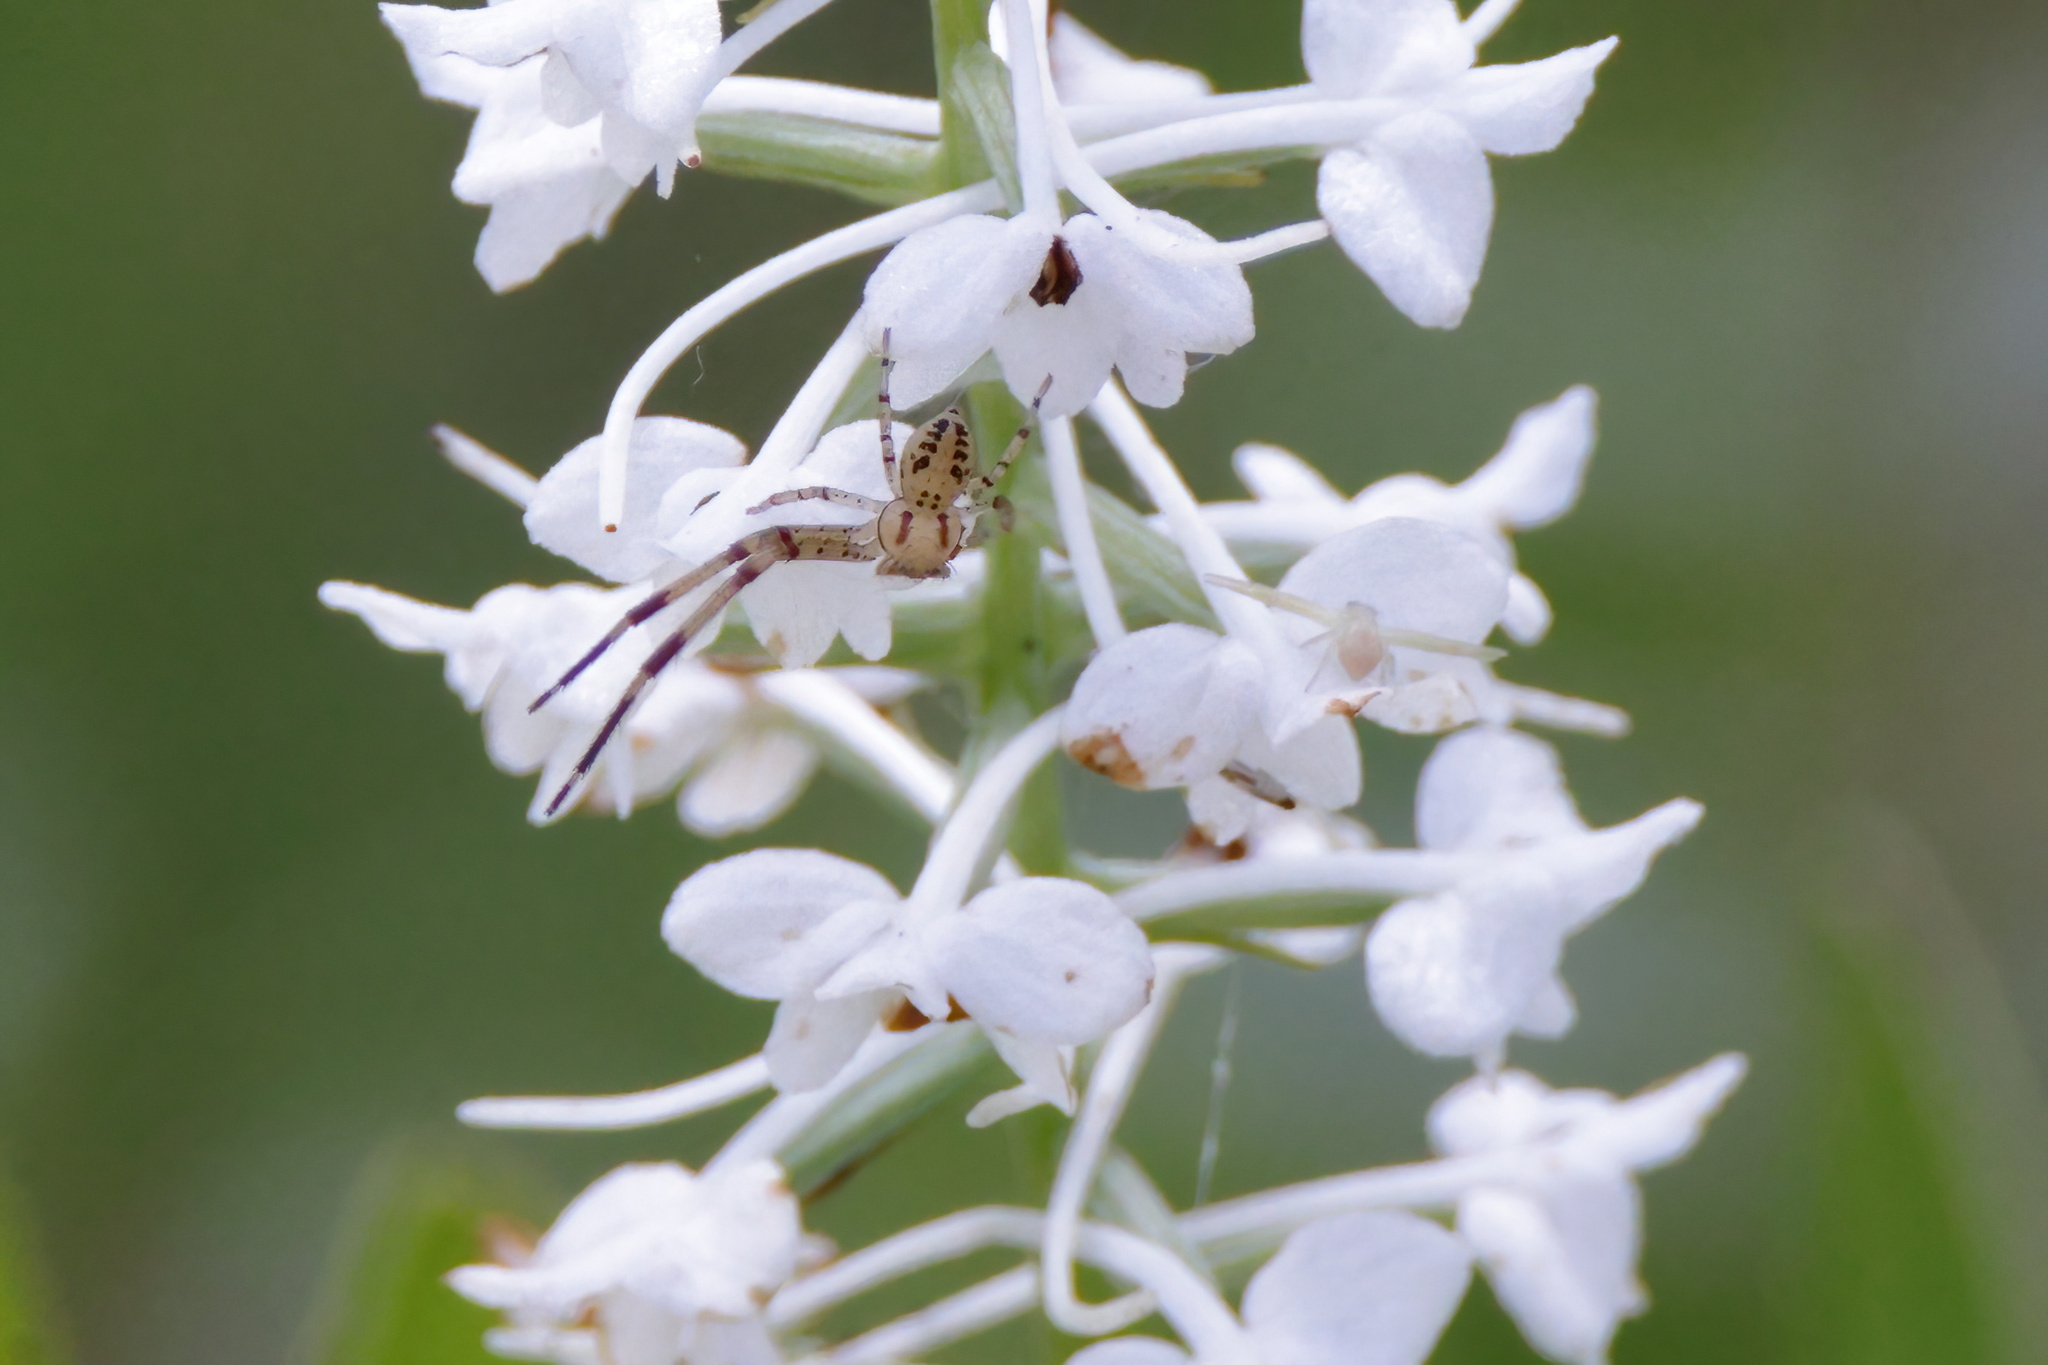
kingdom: Animalia
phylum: Arthropoda
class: Arachnida
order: Araneae
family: Thomisidae
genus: Mecaphesa
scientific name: Mecaphesa celer
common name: Crab spiders
